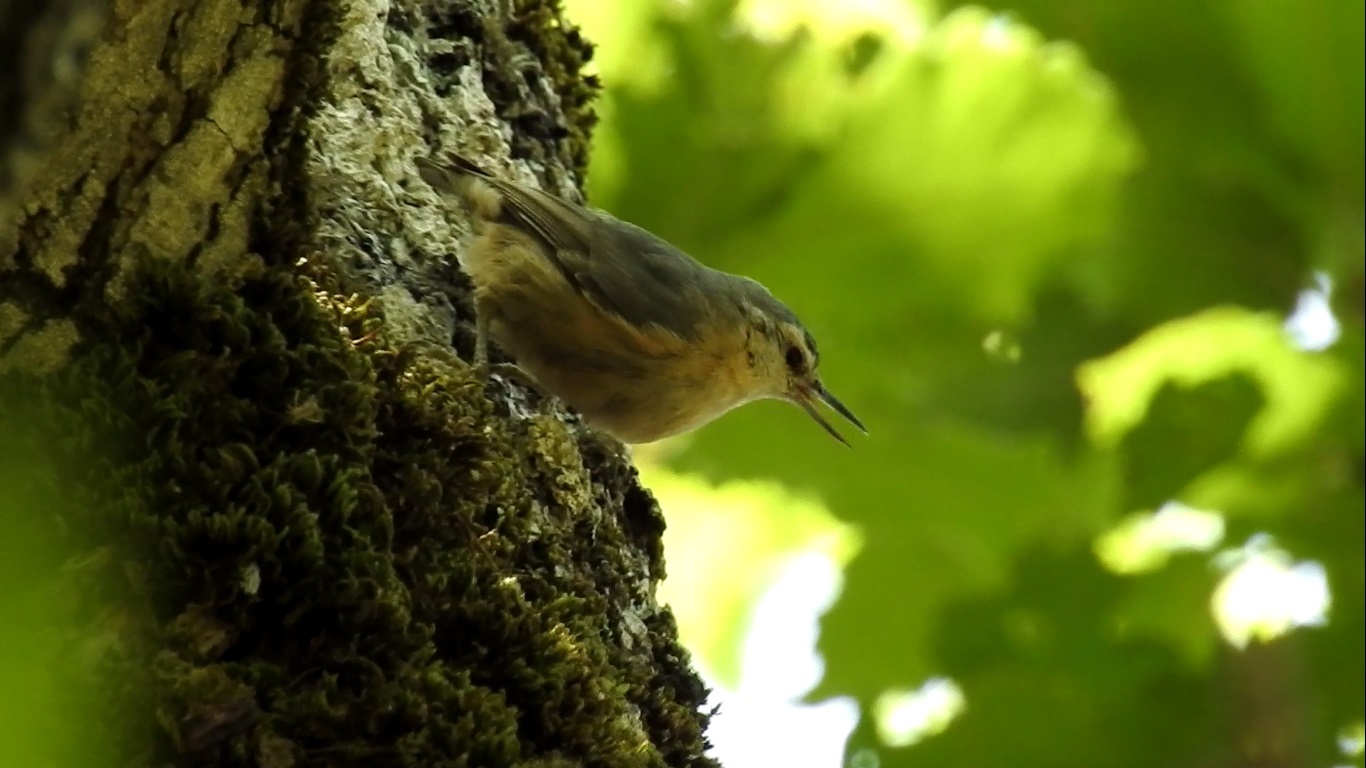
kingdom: Animalia
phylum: Chordata
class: Aves
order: Passeriformes
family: Sittidae
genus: Sitta
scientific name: Sitta ledanti
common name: Algerian nuthatch
